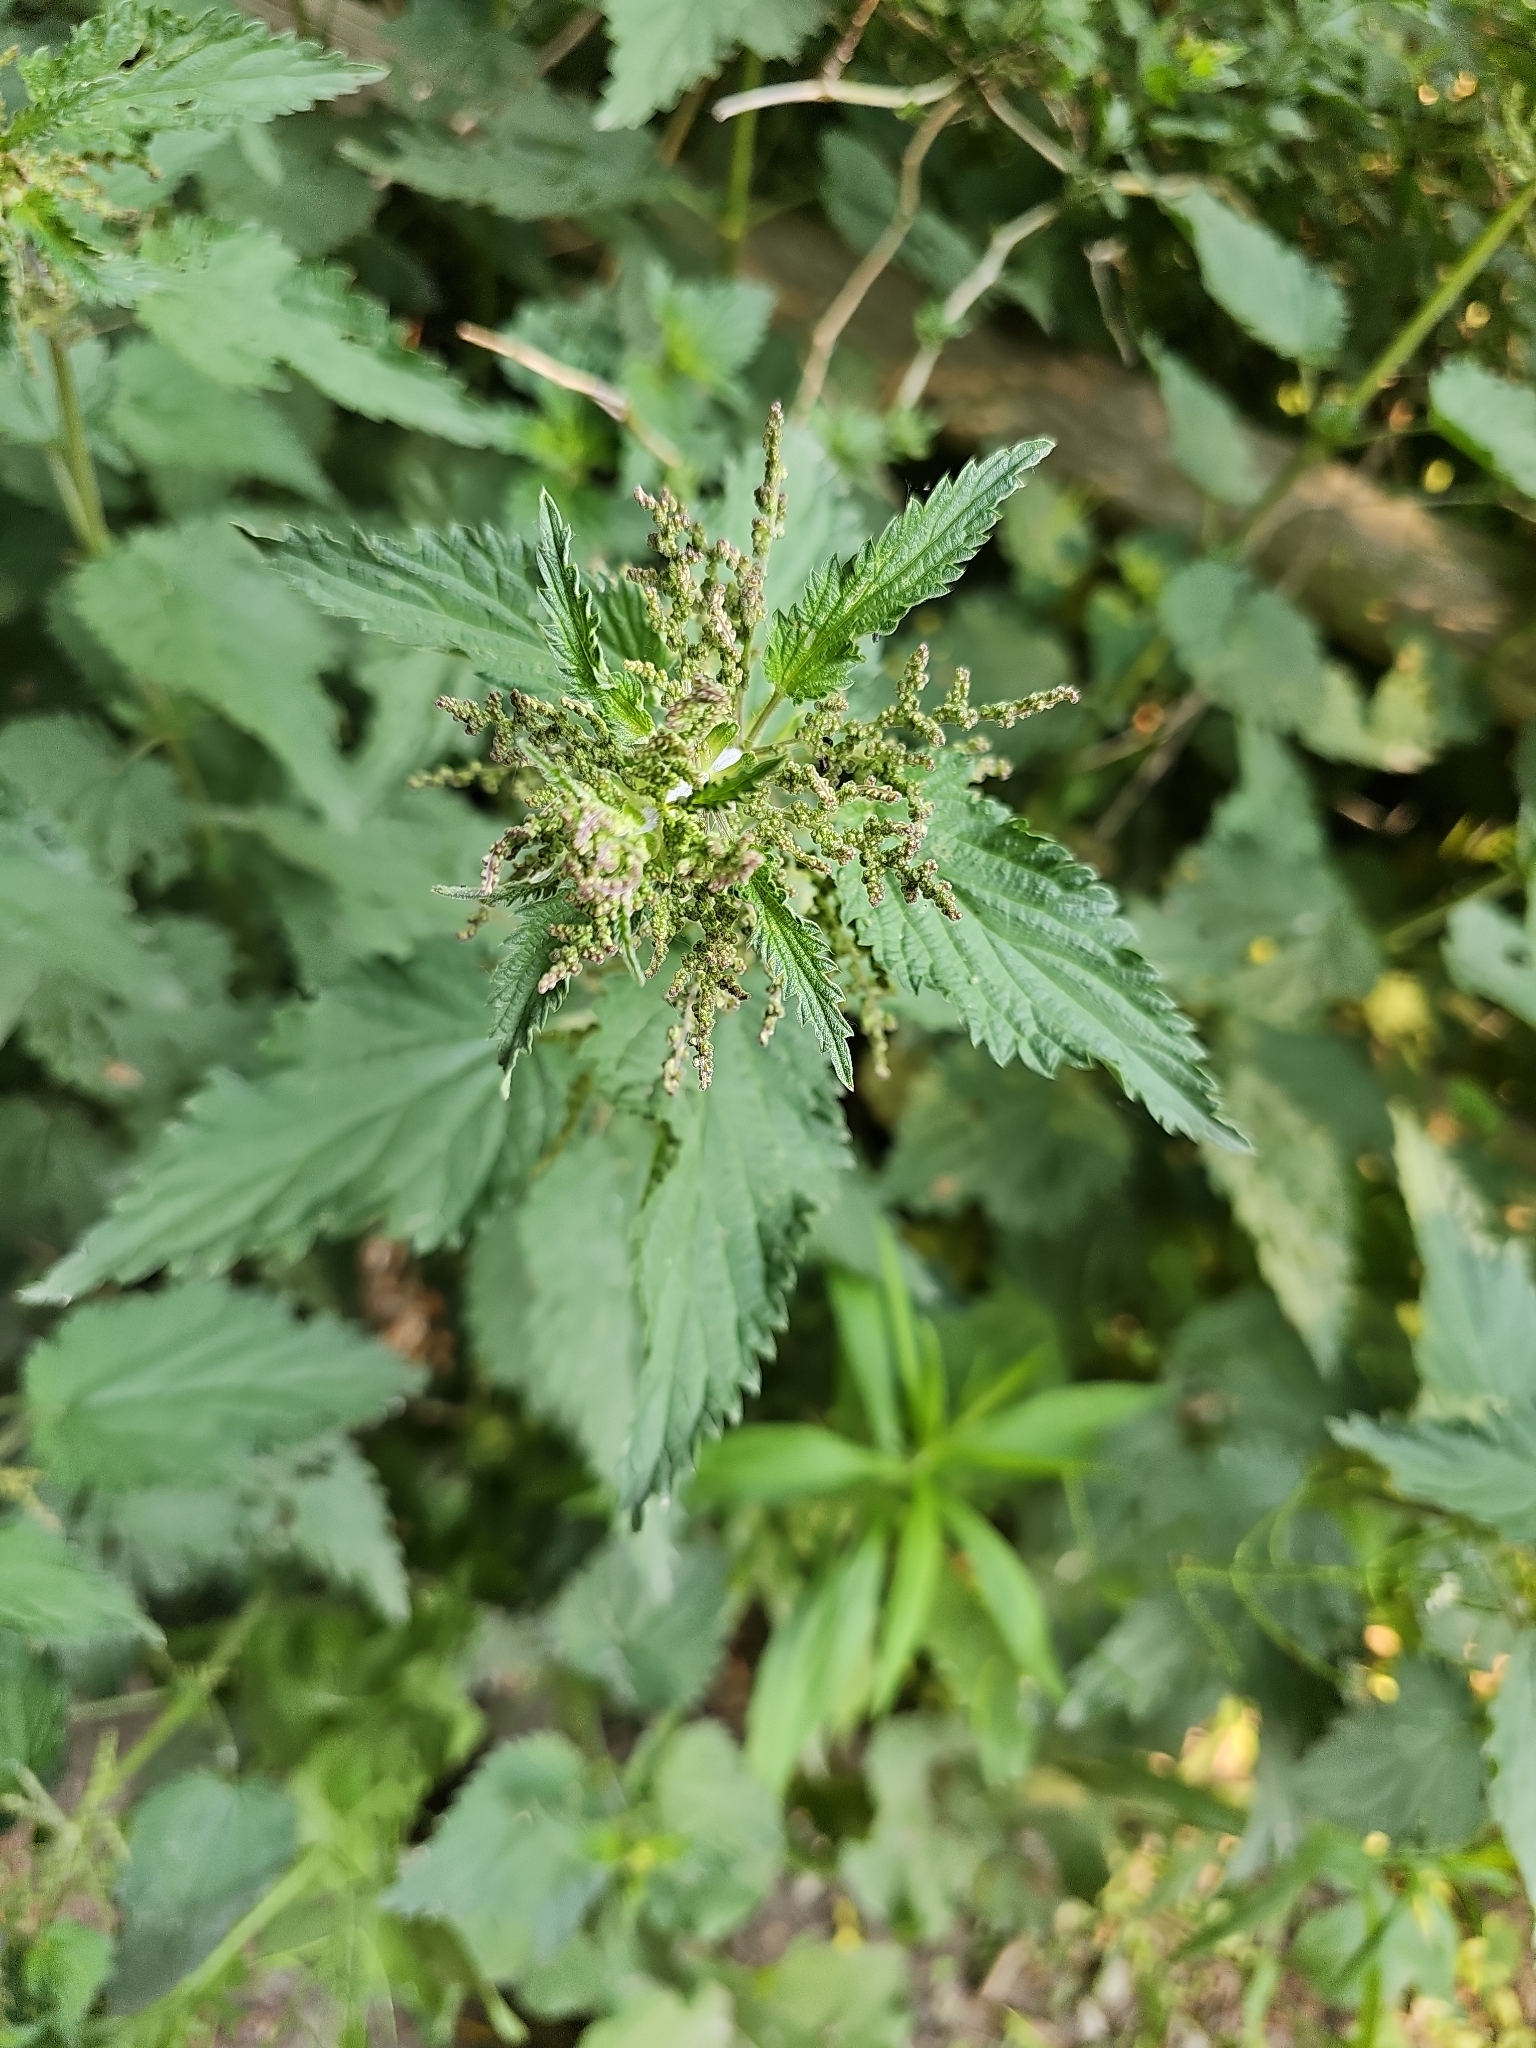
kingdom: Plantae
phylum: Tracheophyta
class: Magnoliopsida
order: Rosales
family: Urticaceae
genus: Urtica
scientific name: Urtica dioica
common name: Common nettle
